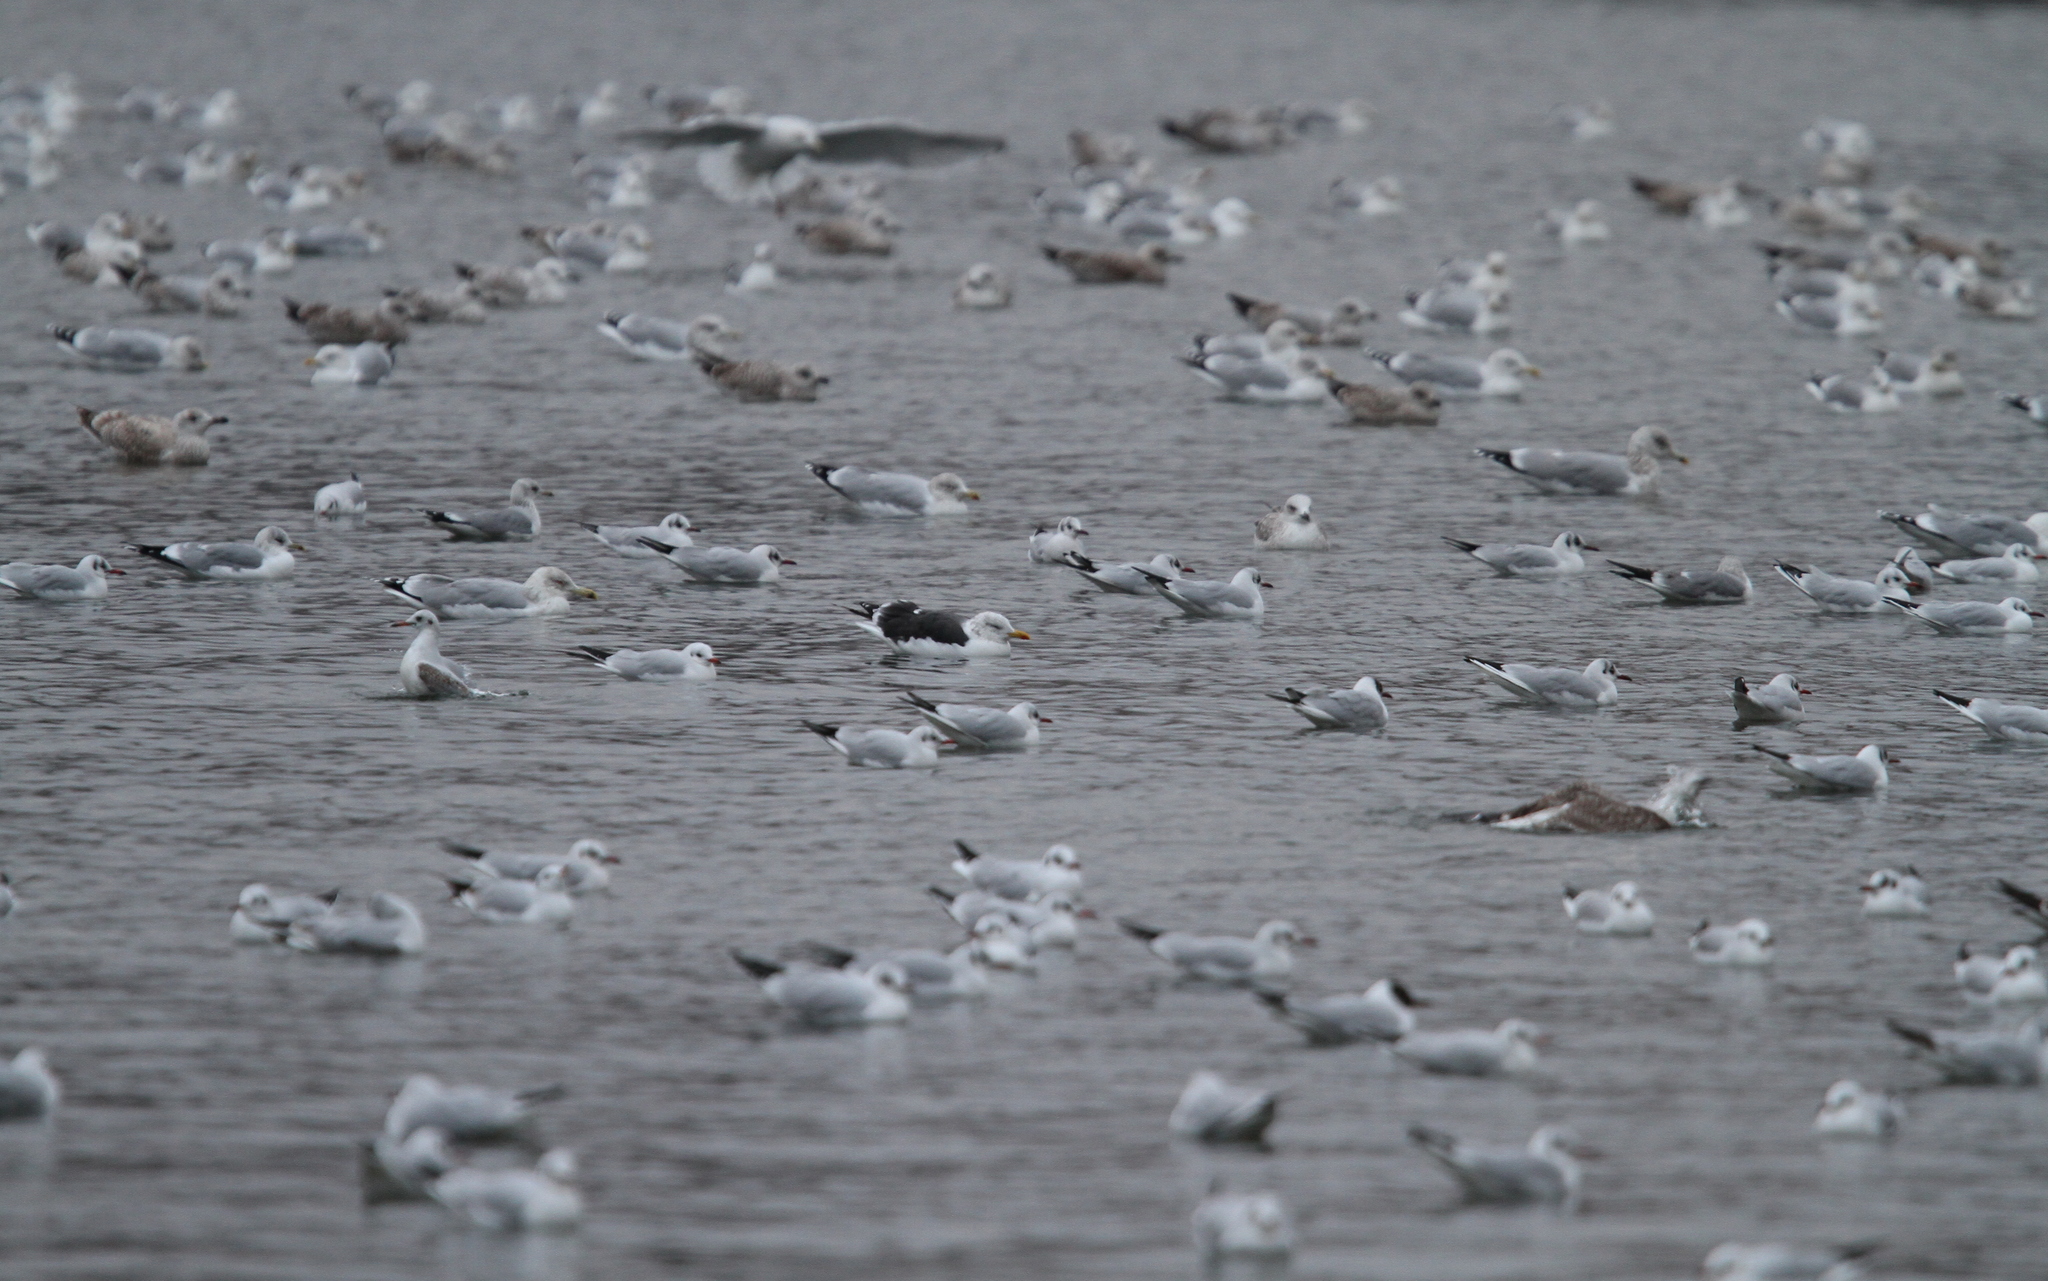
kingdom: Animalia
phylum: Chordata
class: Aves
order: Charadriiformes
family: Laridae
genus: Larus
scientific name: Larus fuscus
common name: Lesser black-backed gull
